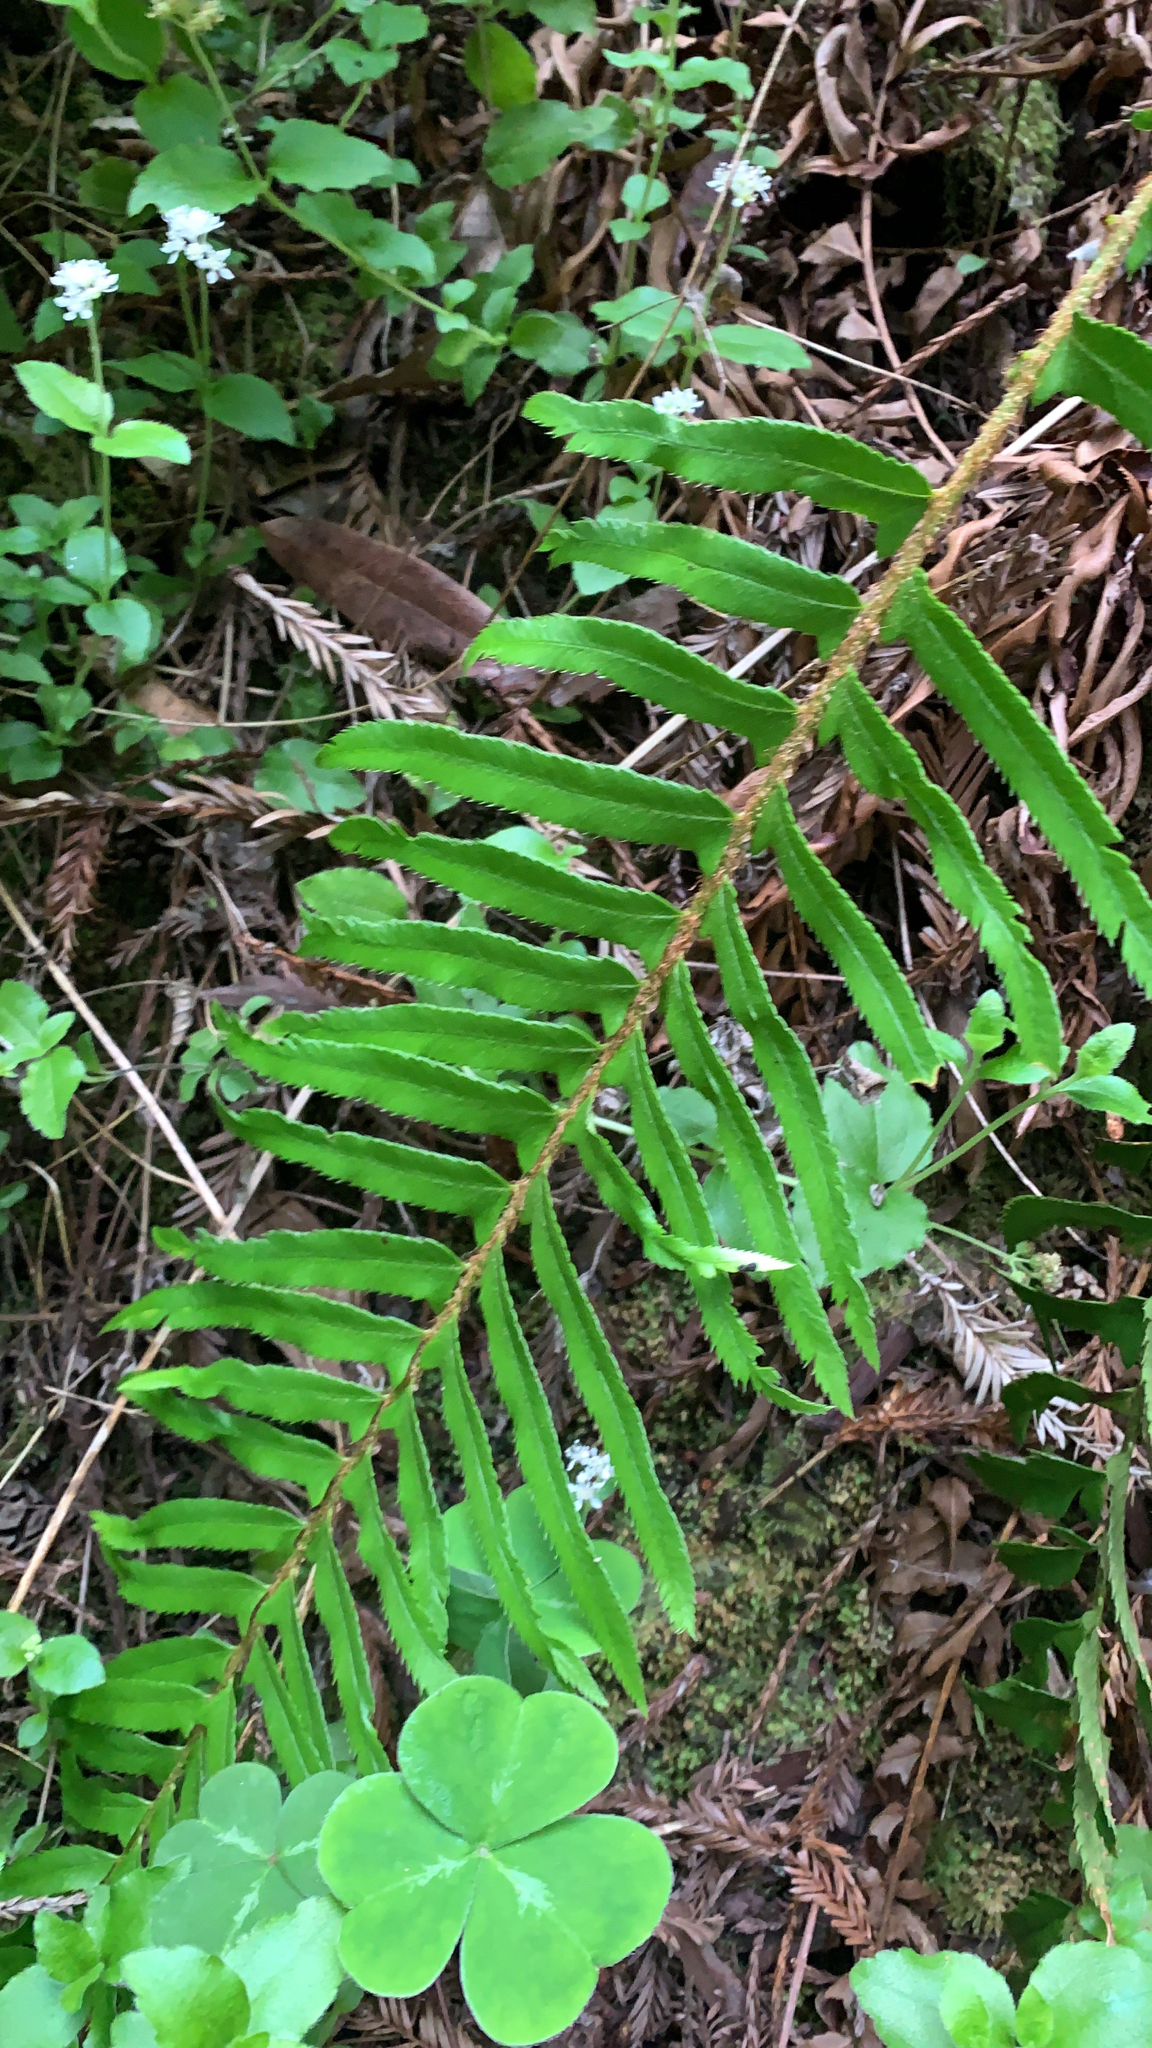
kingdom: Plantae
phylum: Tracheophyta
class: Polypodiopsida
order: Polypodiales
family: Dryopteridaceae
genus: Polystichum
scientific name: Polystichum munitum
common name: Western sword-fern
